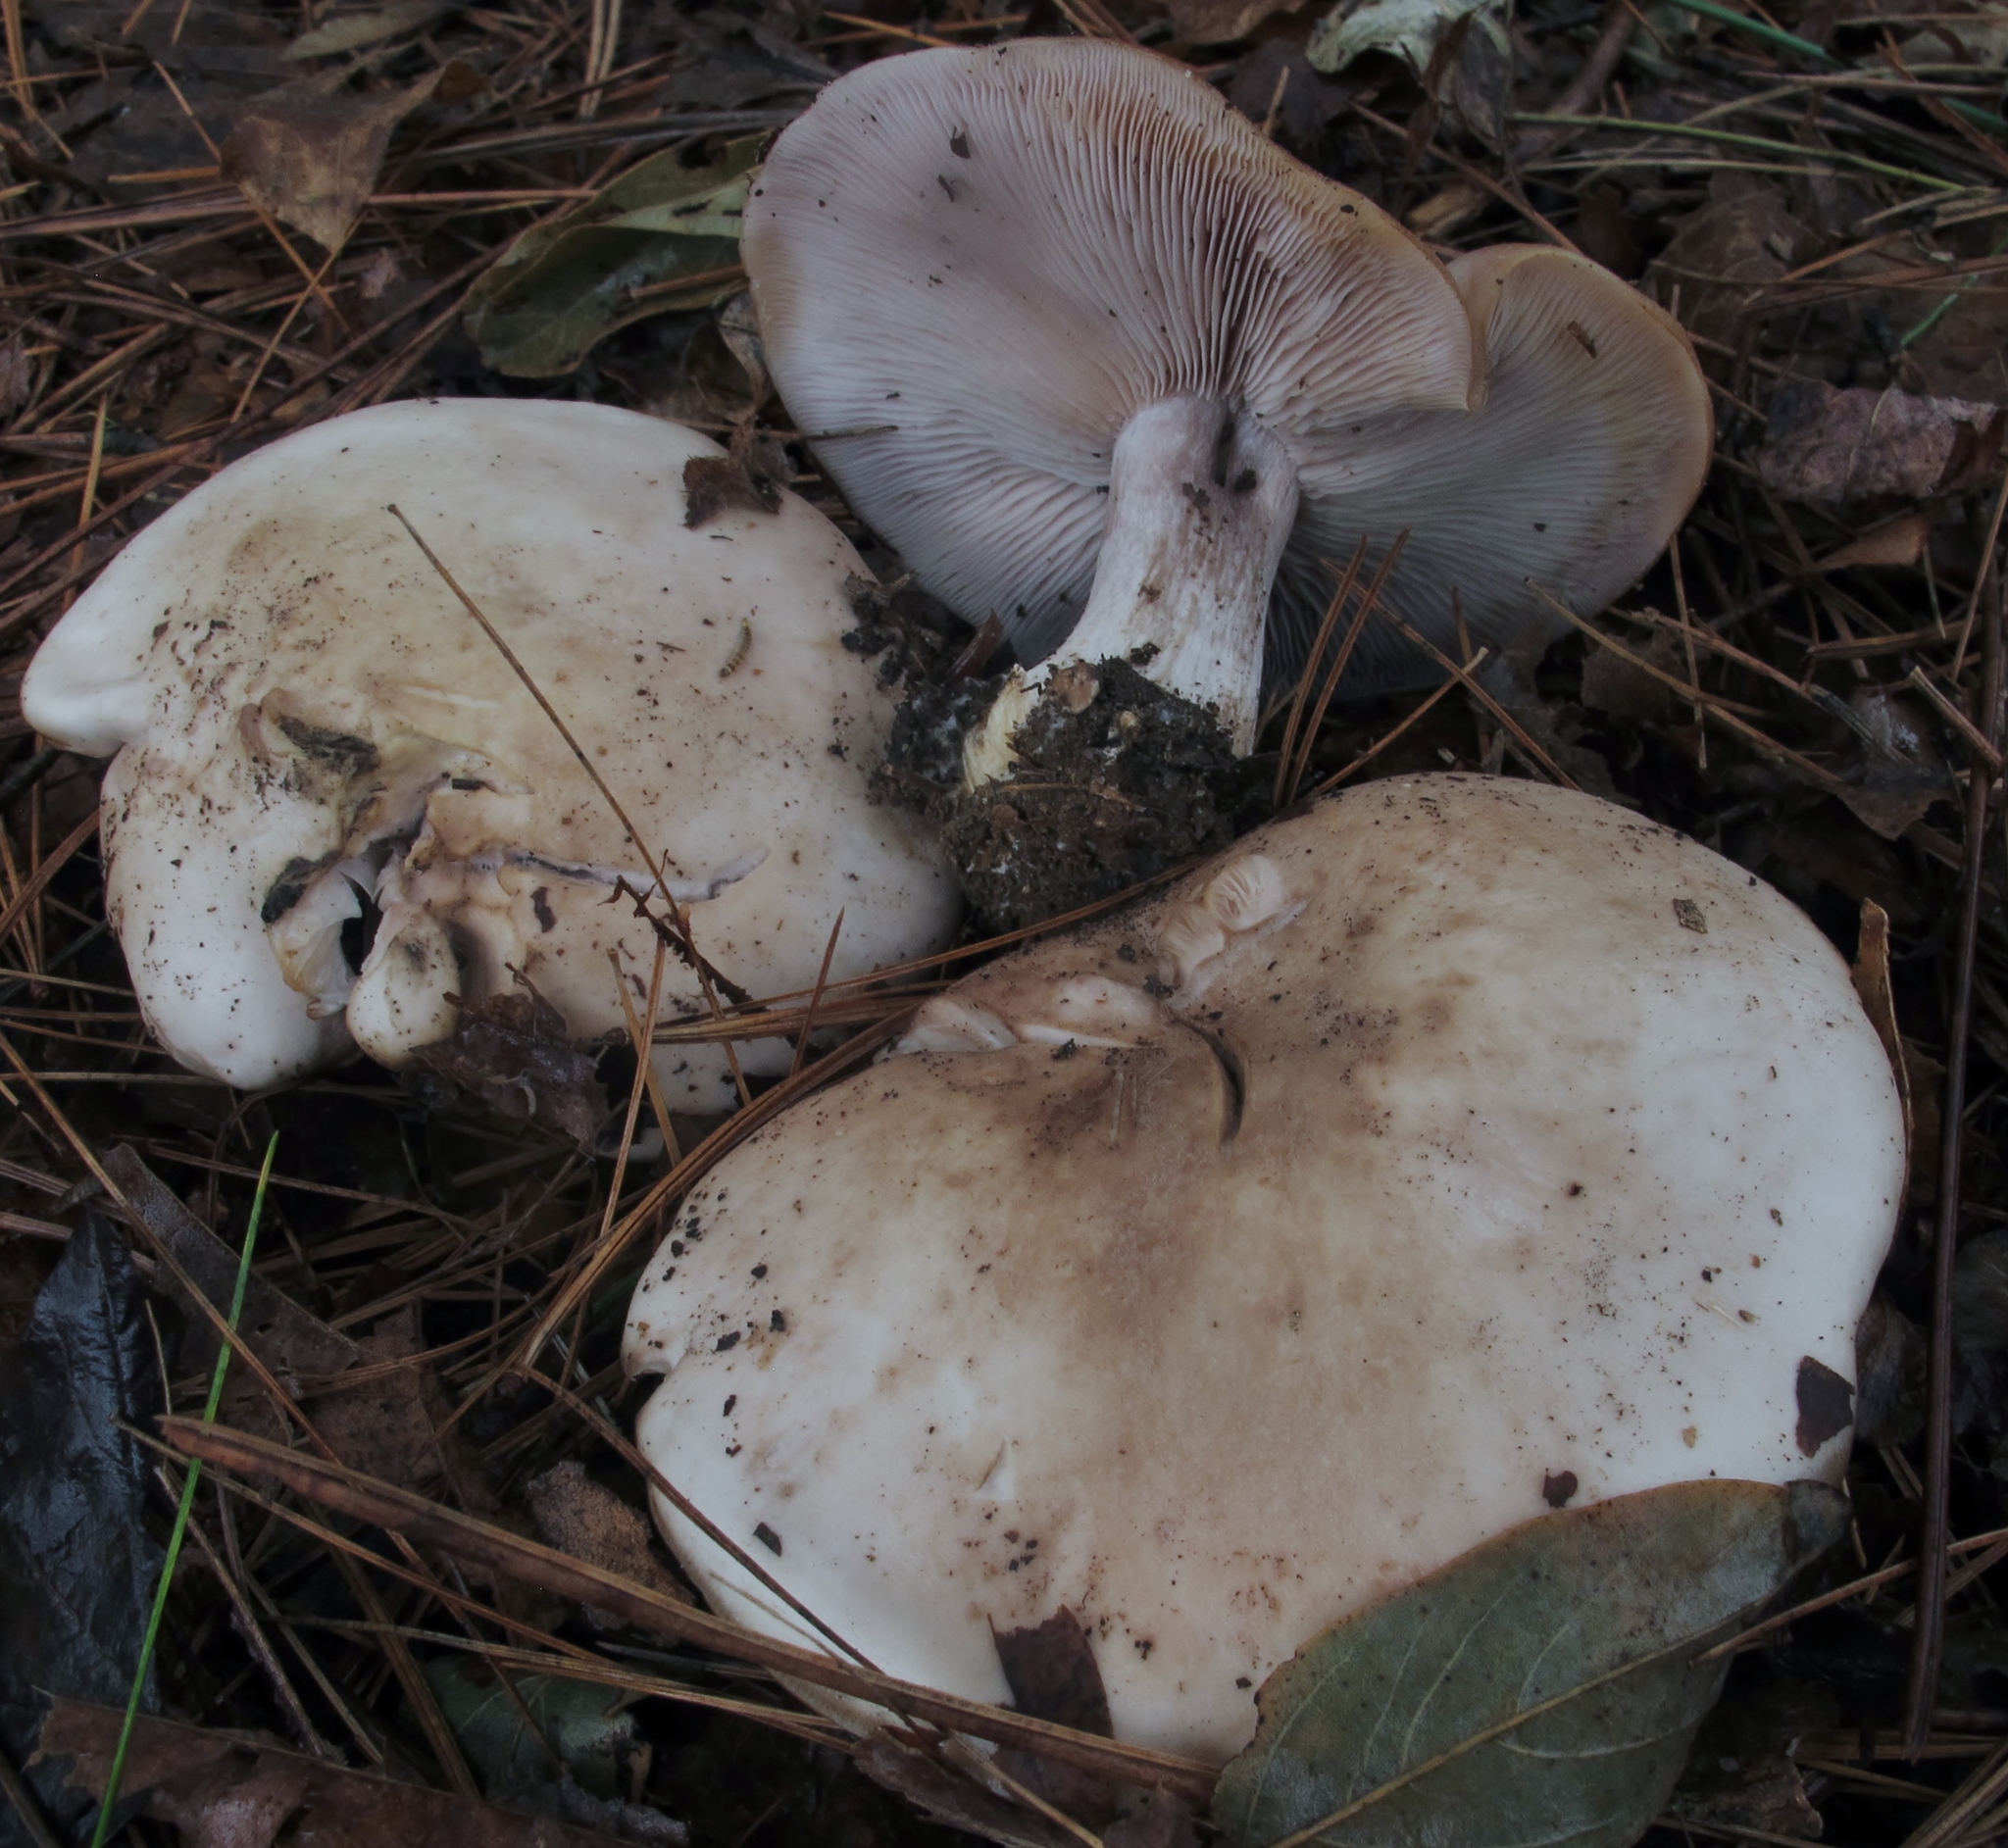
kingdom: Fungi
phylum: Basidiomycota
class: Agaricomycetes
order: Agaricales
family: Tricholomataceae
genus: Collybia
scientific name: Collybia
